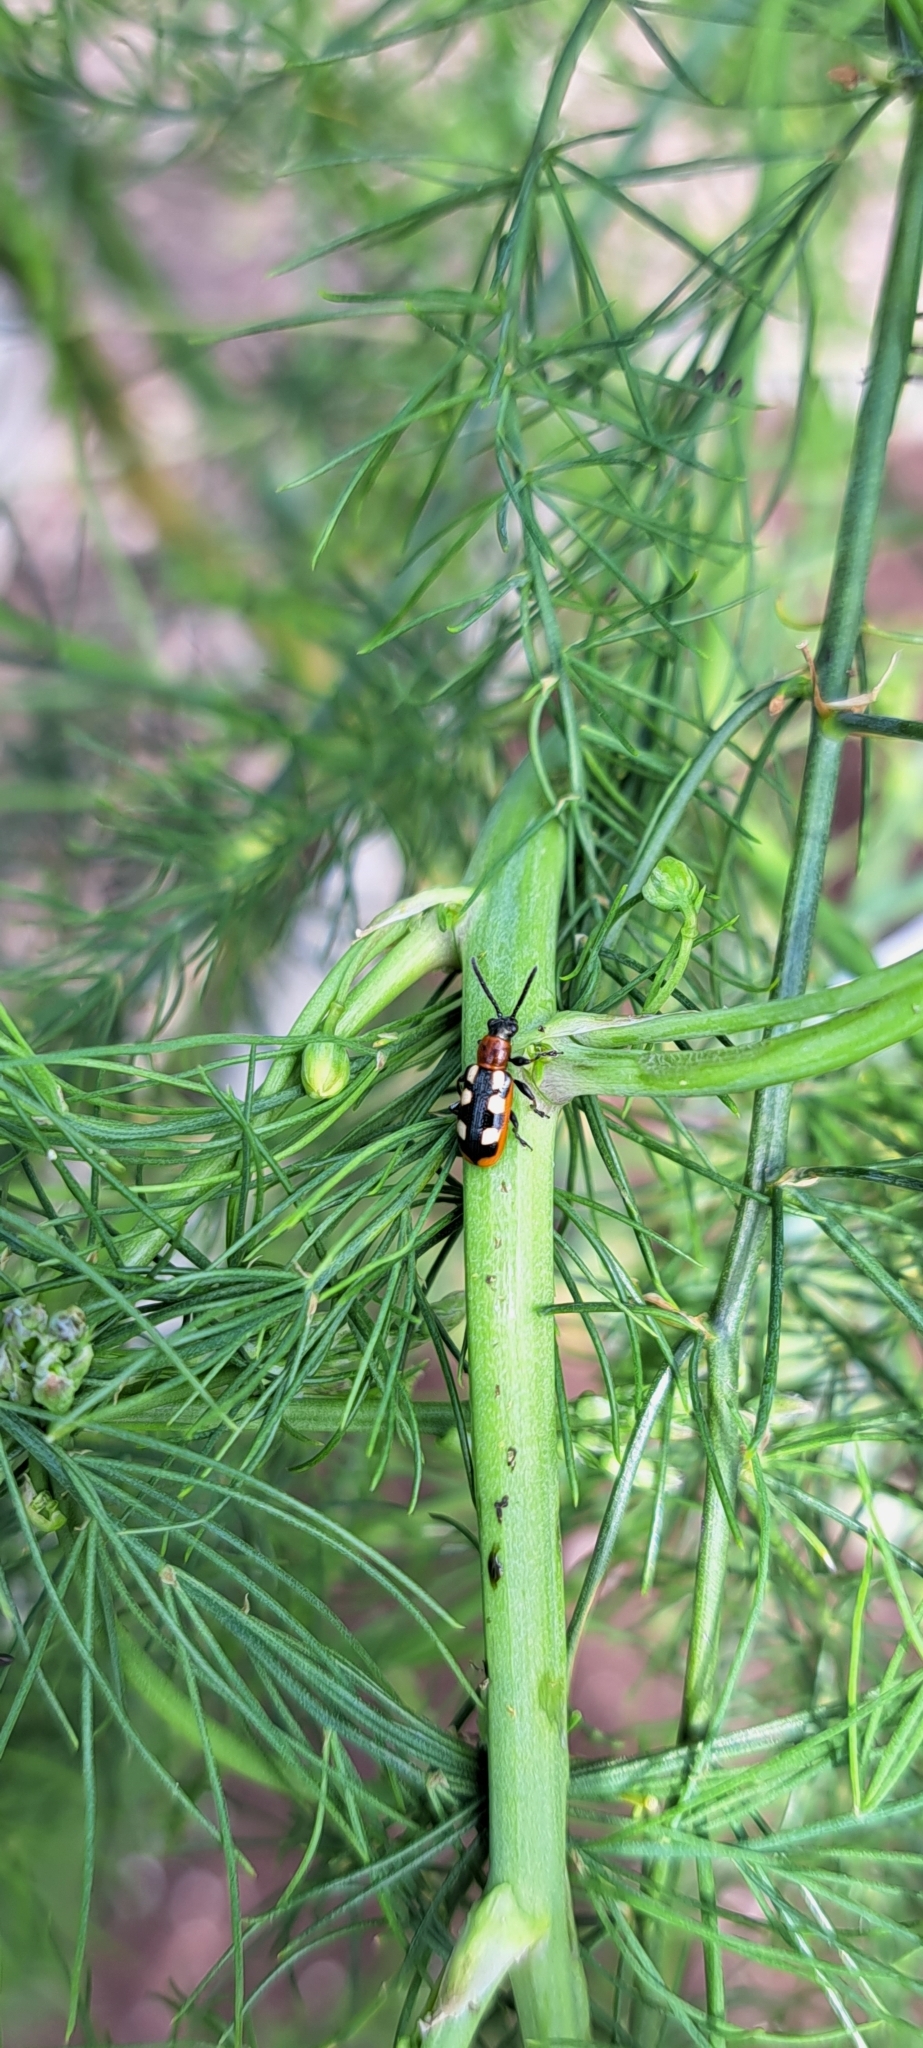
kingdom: Animalia
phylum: Arthropoda
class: Insecta
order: Coleoptera
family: Chrysomelidae
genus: Crioceris
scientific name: Crioceris asparagi
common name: Asparagus beetle
